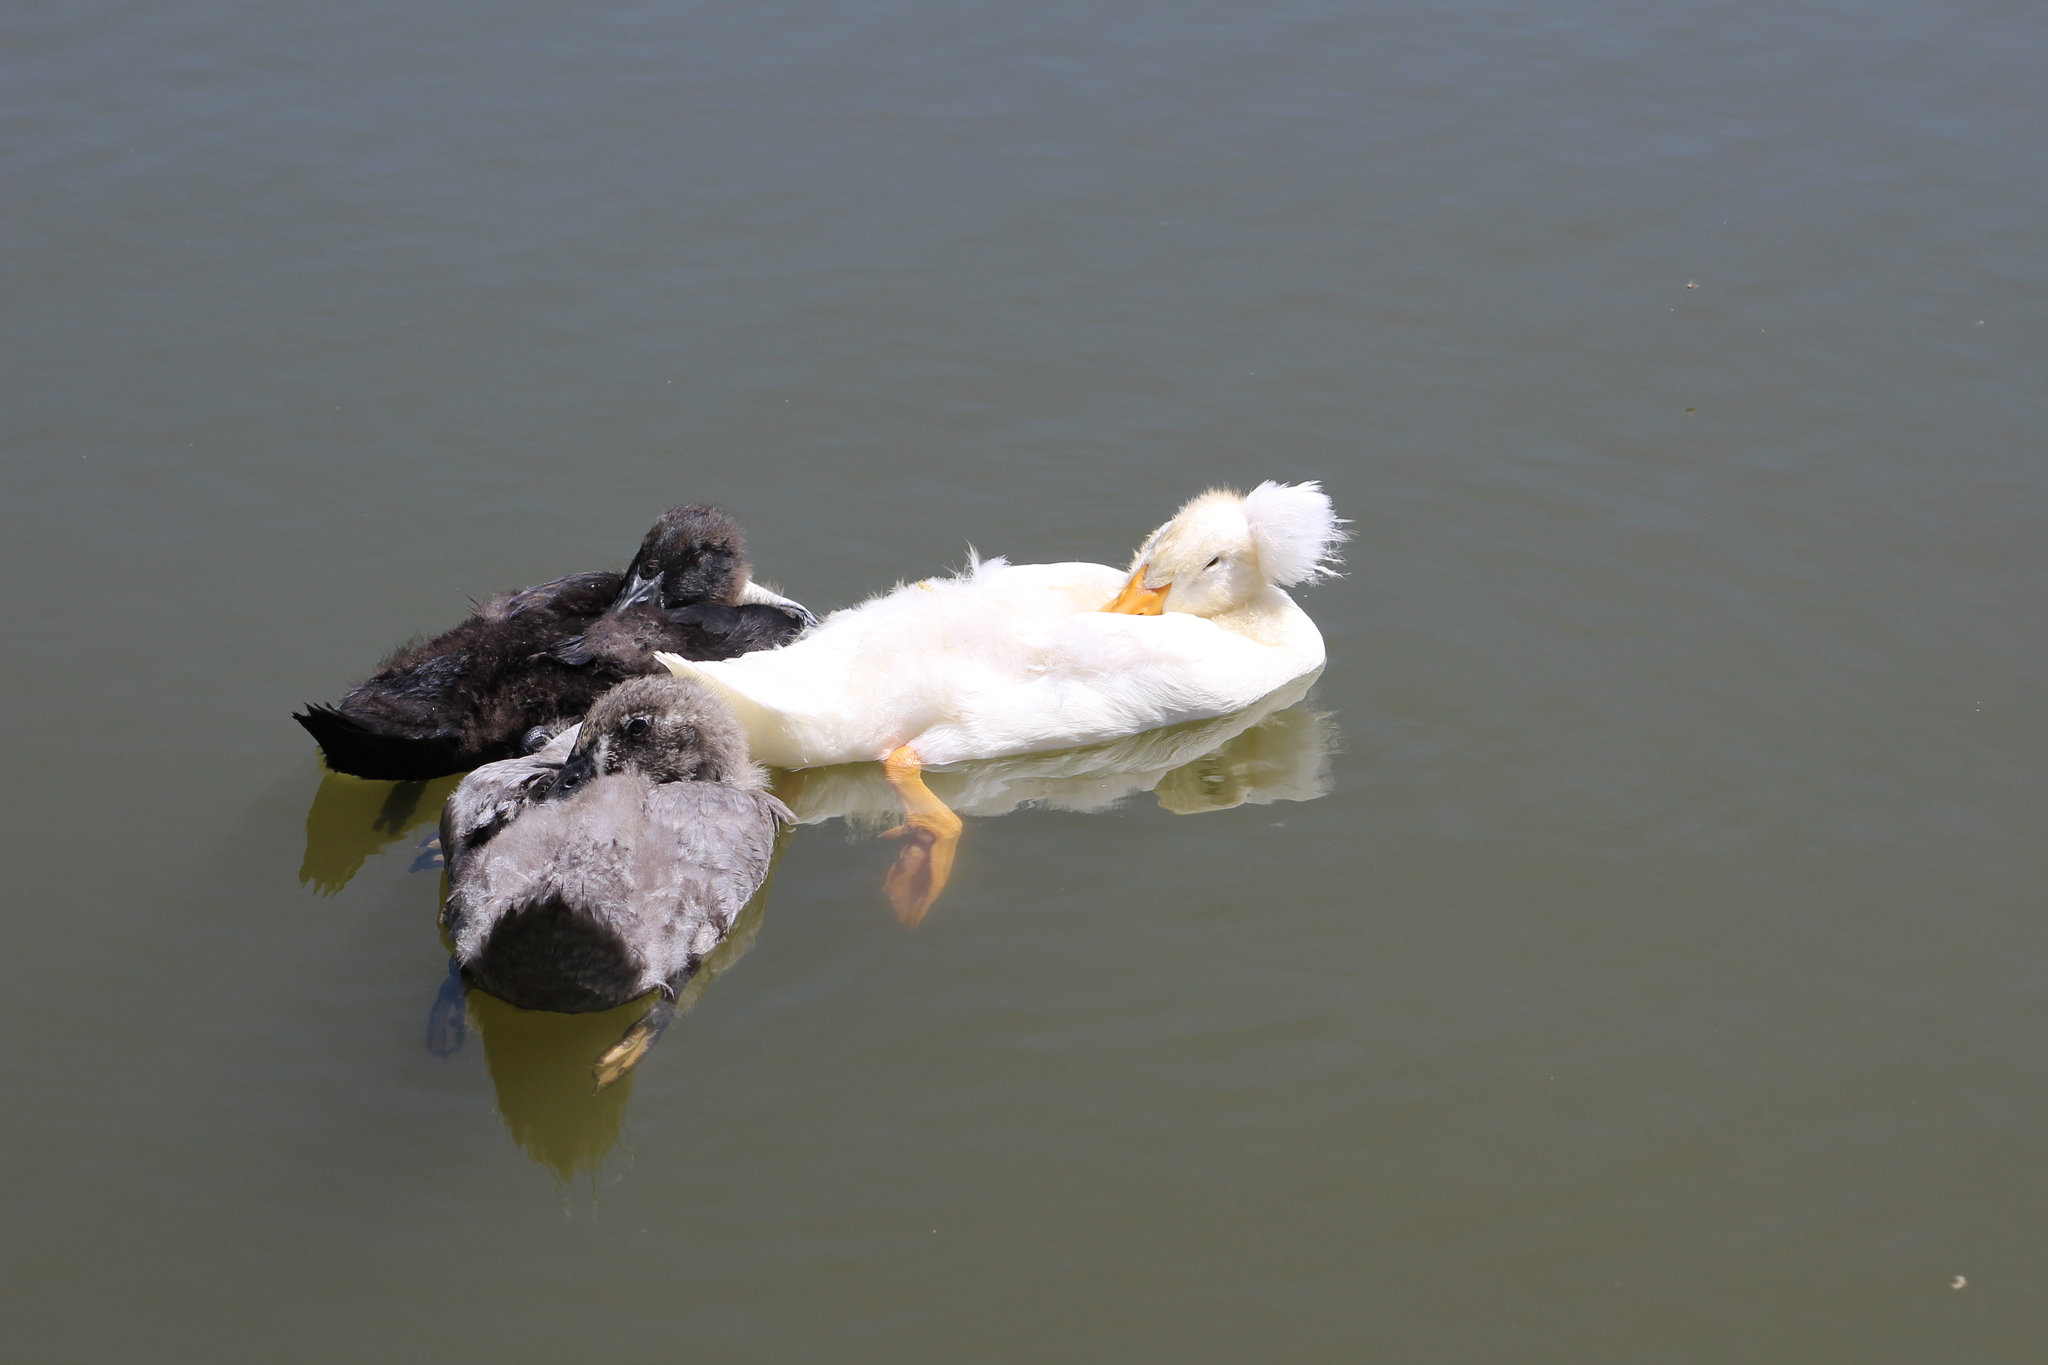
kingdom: Animalia
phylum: Chordata
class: Aves
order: Anseriformes
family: Anatidae
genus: Anas
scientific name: Anas platyrhynchos
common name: Mallard
